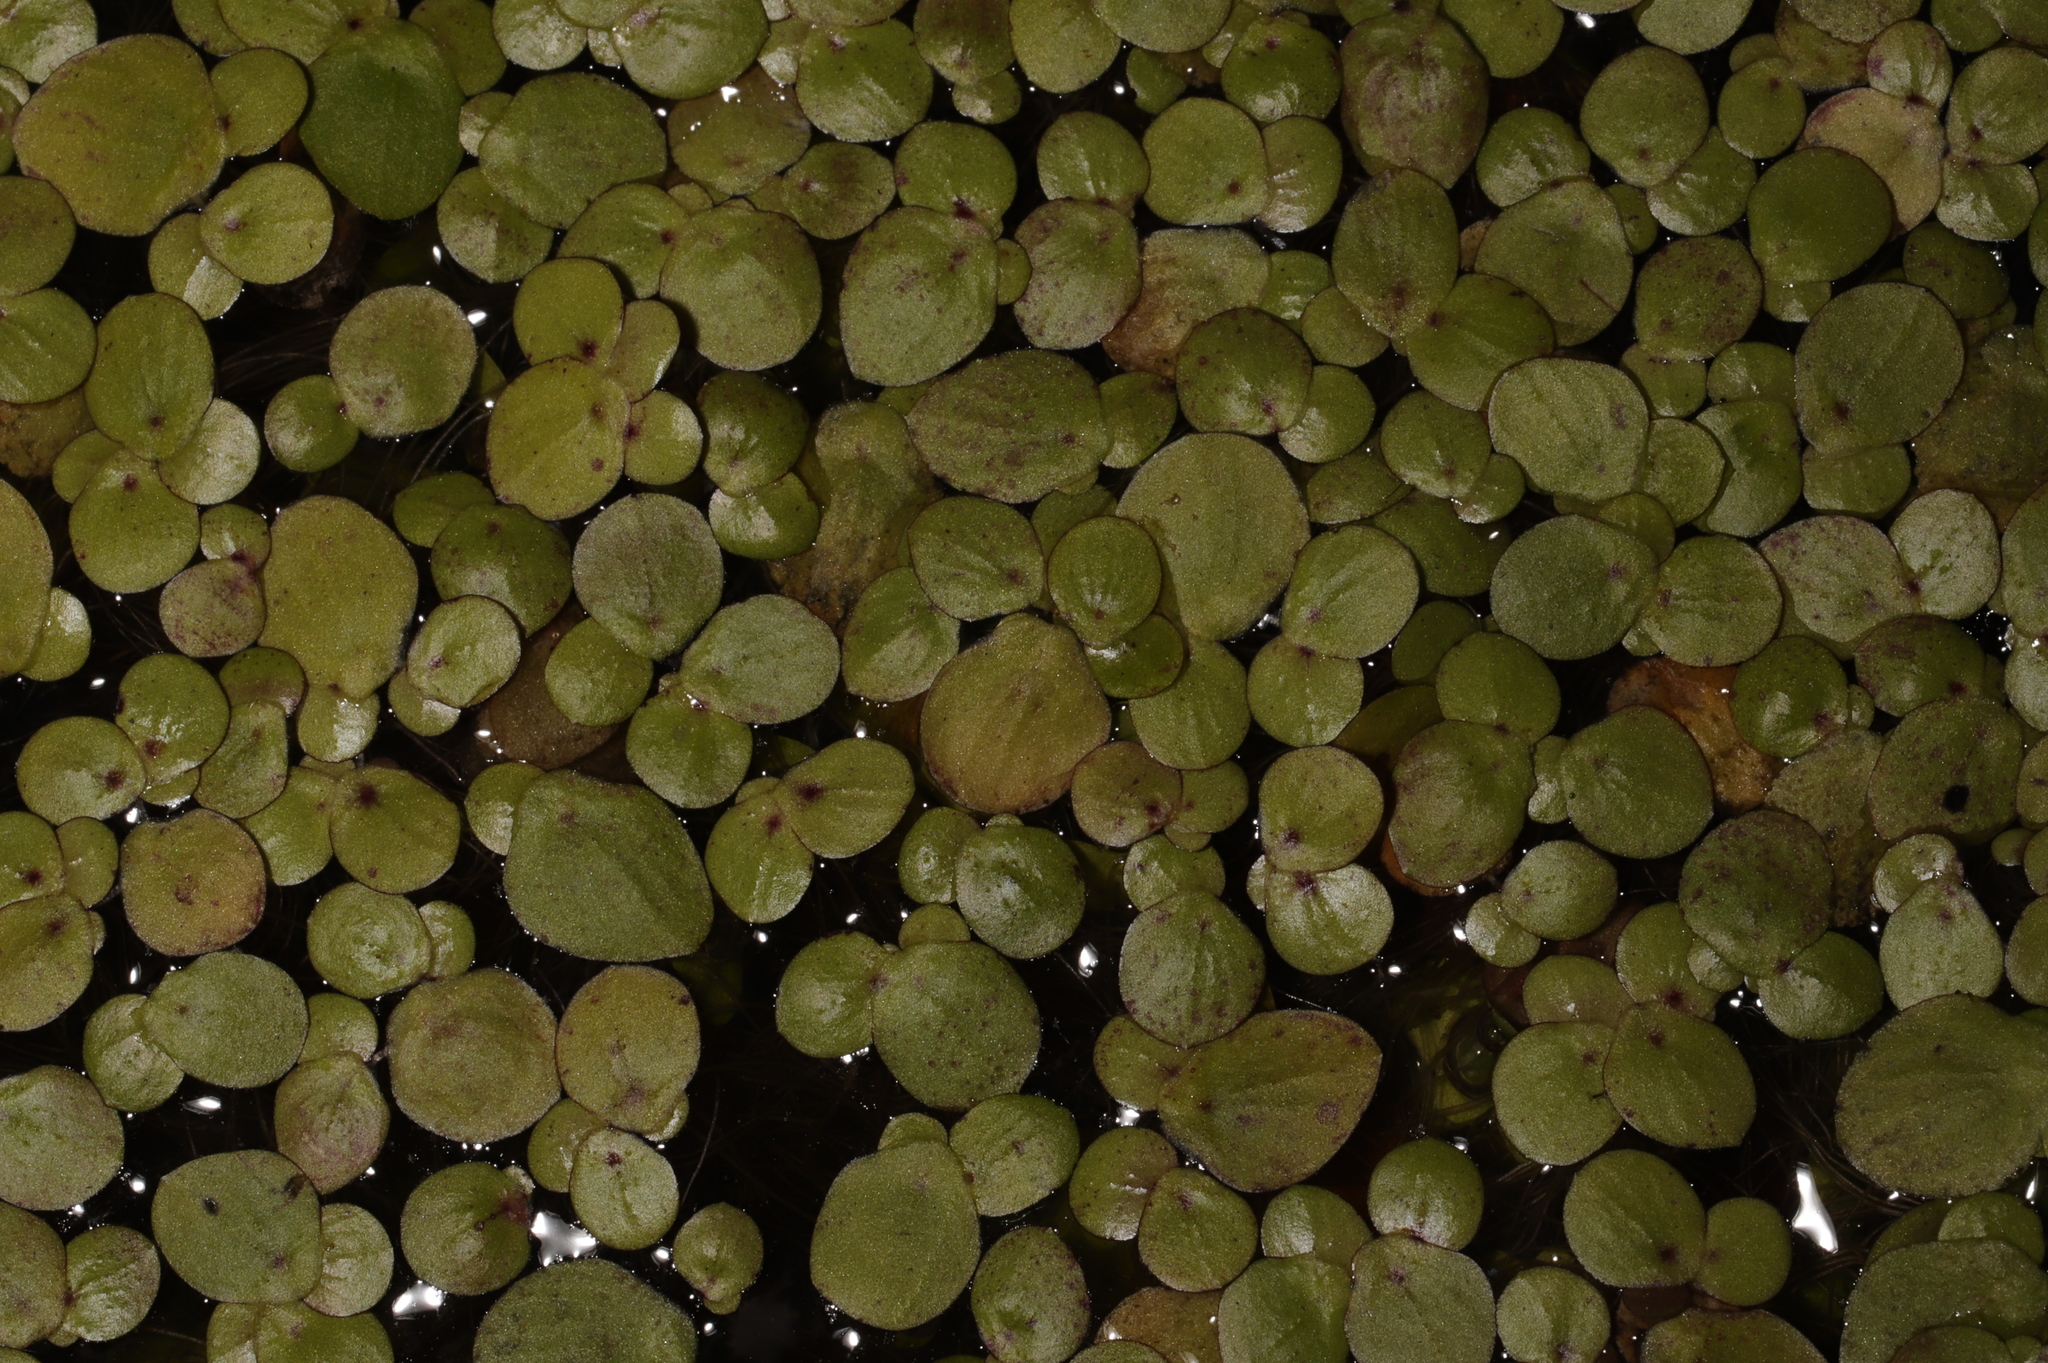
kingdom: Plantae
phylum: Tracheophyta
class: Liliopsida
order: Alismatales
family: Araceae
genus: Spirodela
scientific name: Spirodela polyrhiza
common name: Great duckweed
